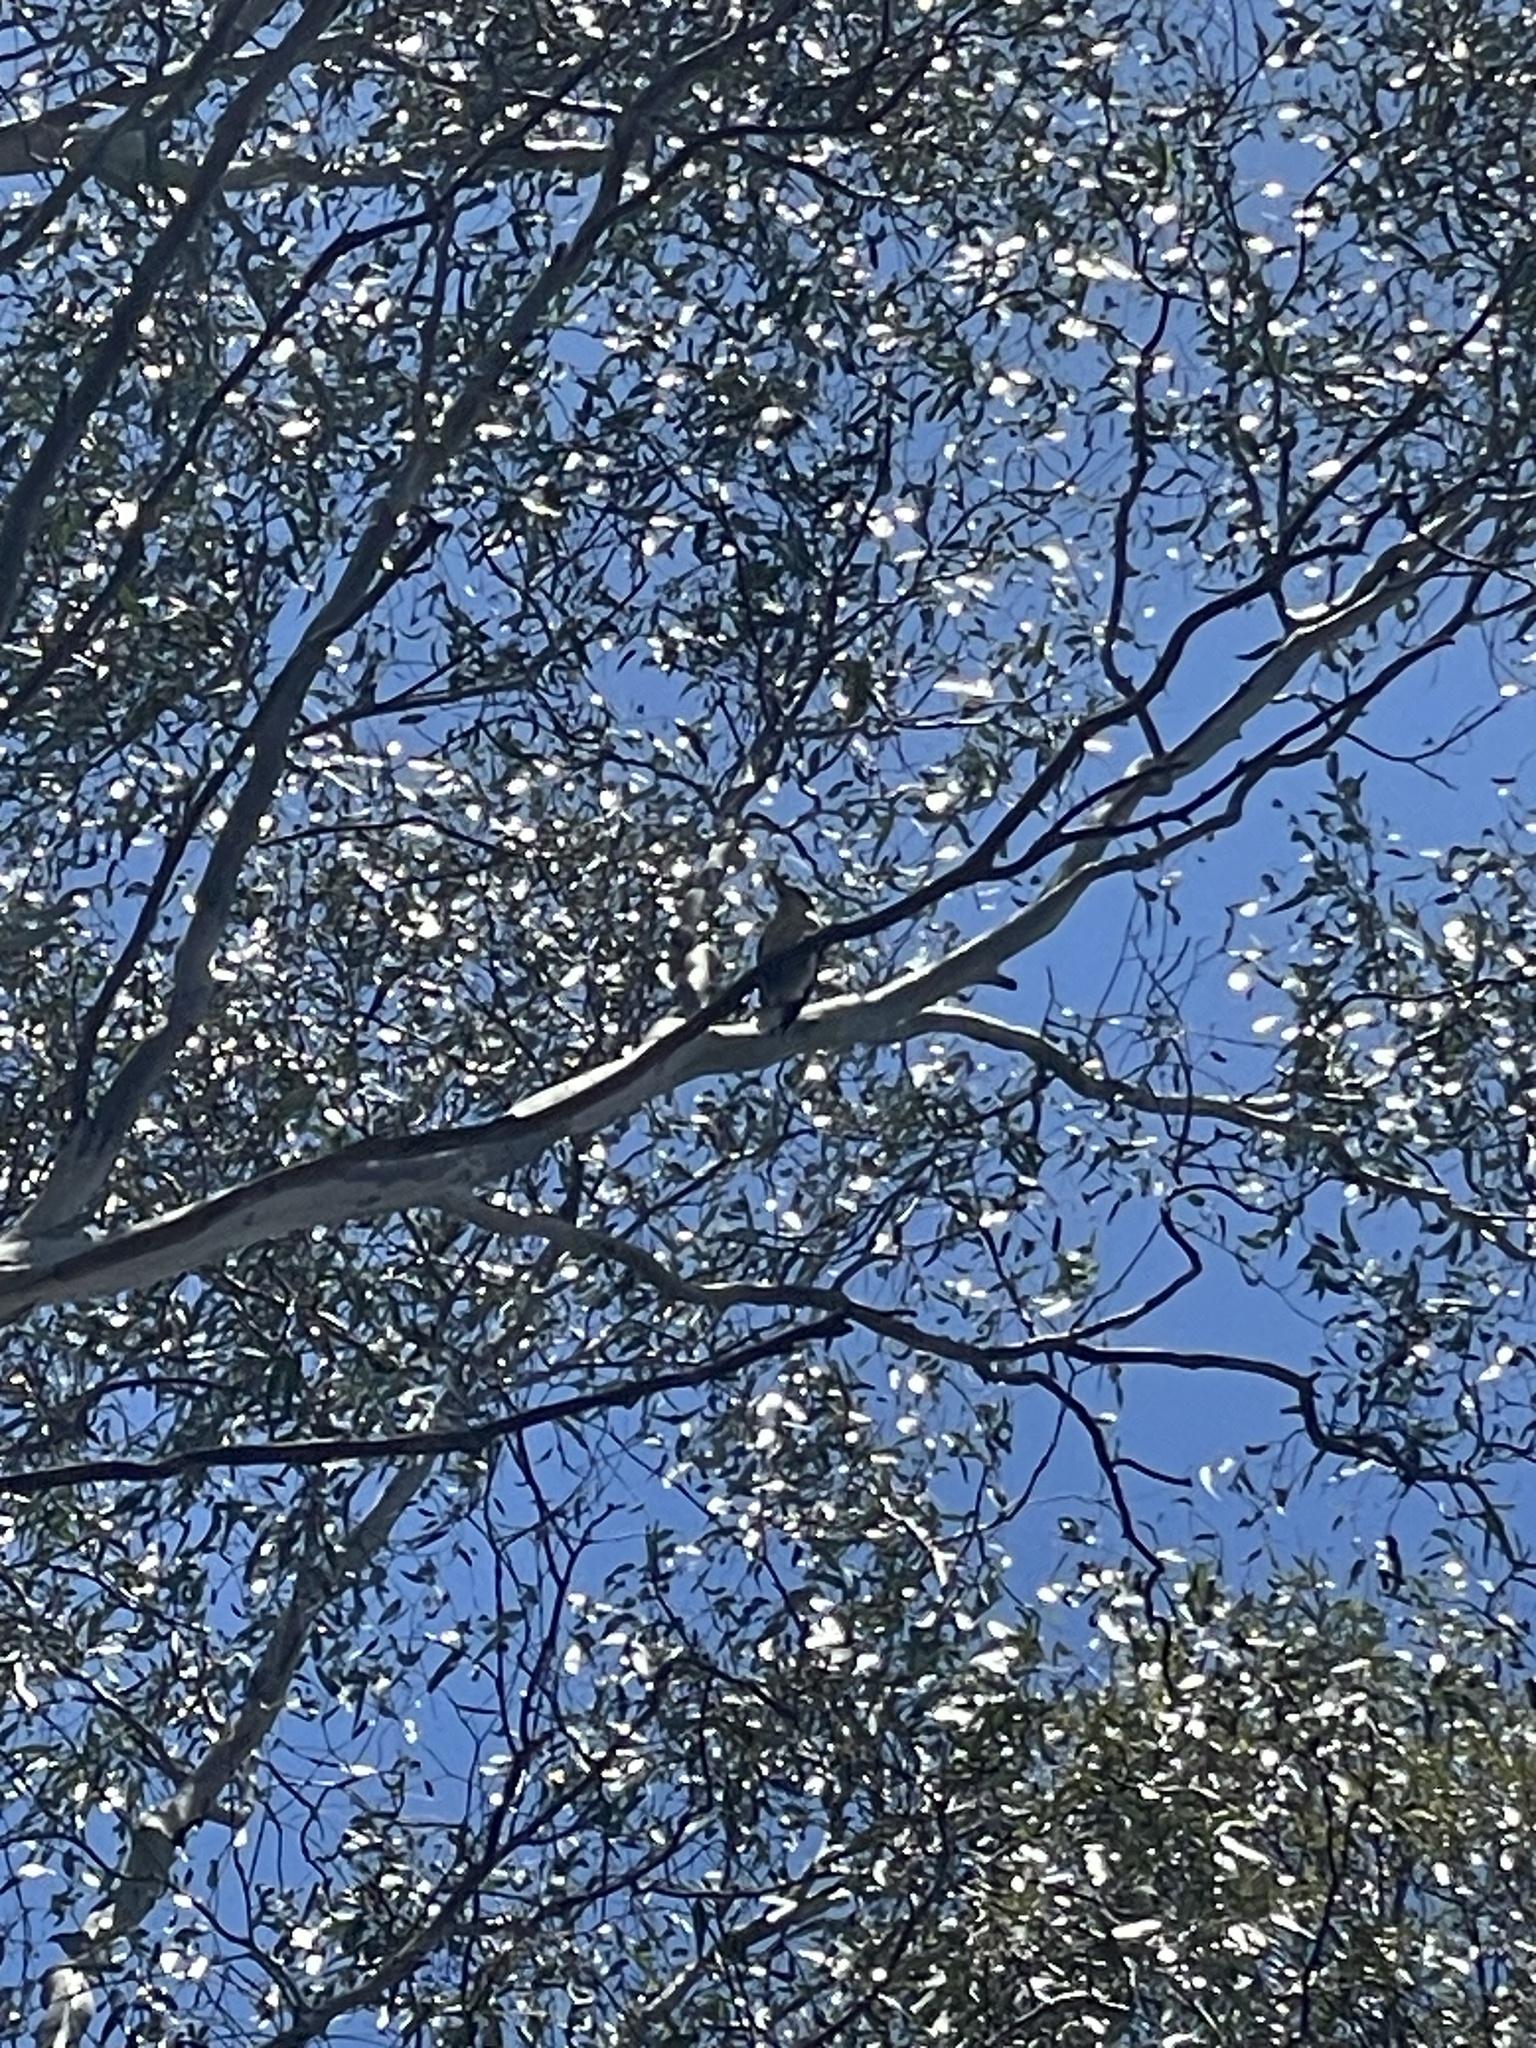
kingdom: Animalia
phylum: Chordata
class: Aves
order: Coraciiformes
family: Alcedinidae
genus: Dacelo
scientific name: Dacelo novaeguineae
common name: Laughing kookaburra
